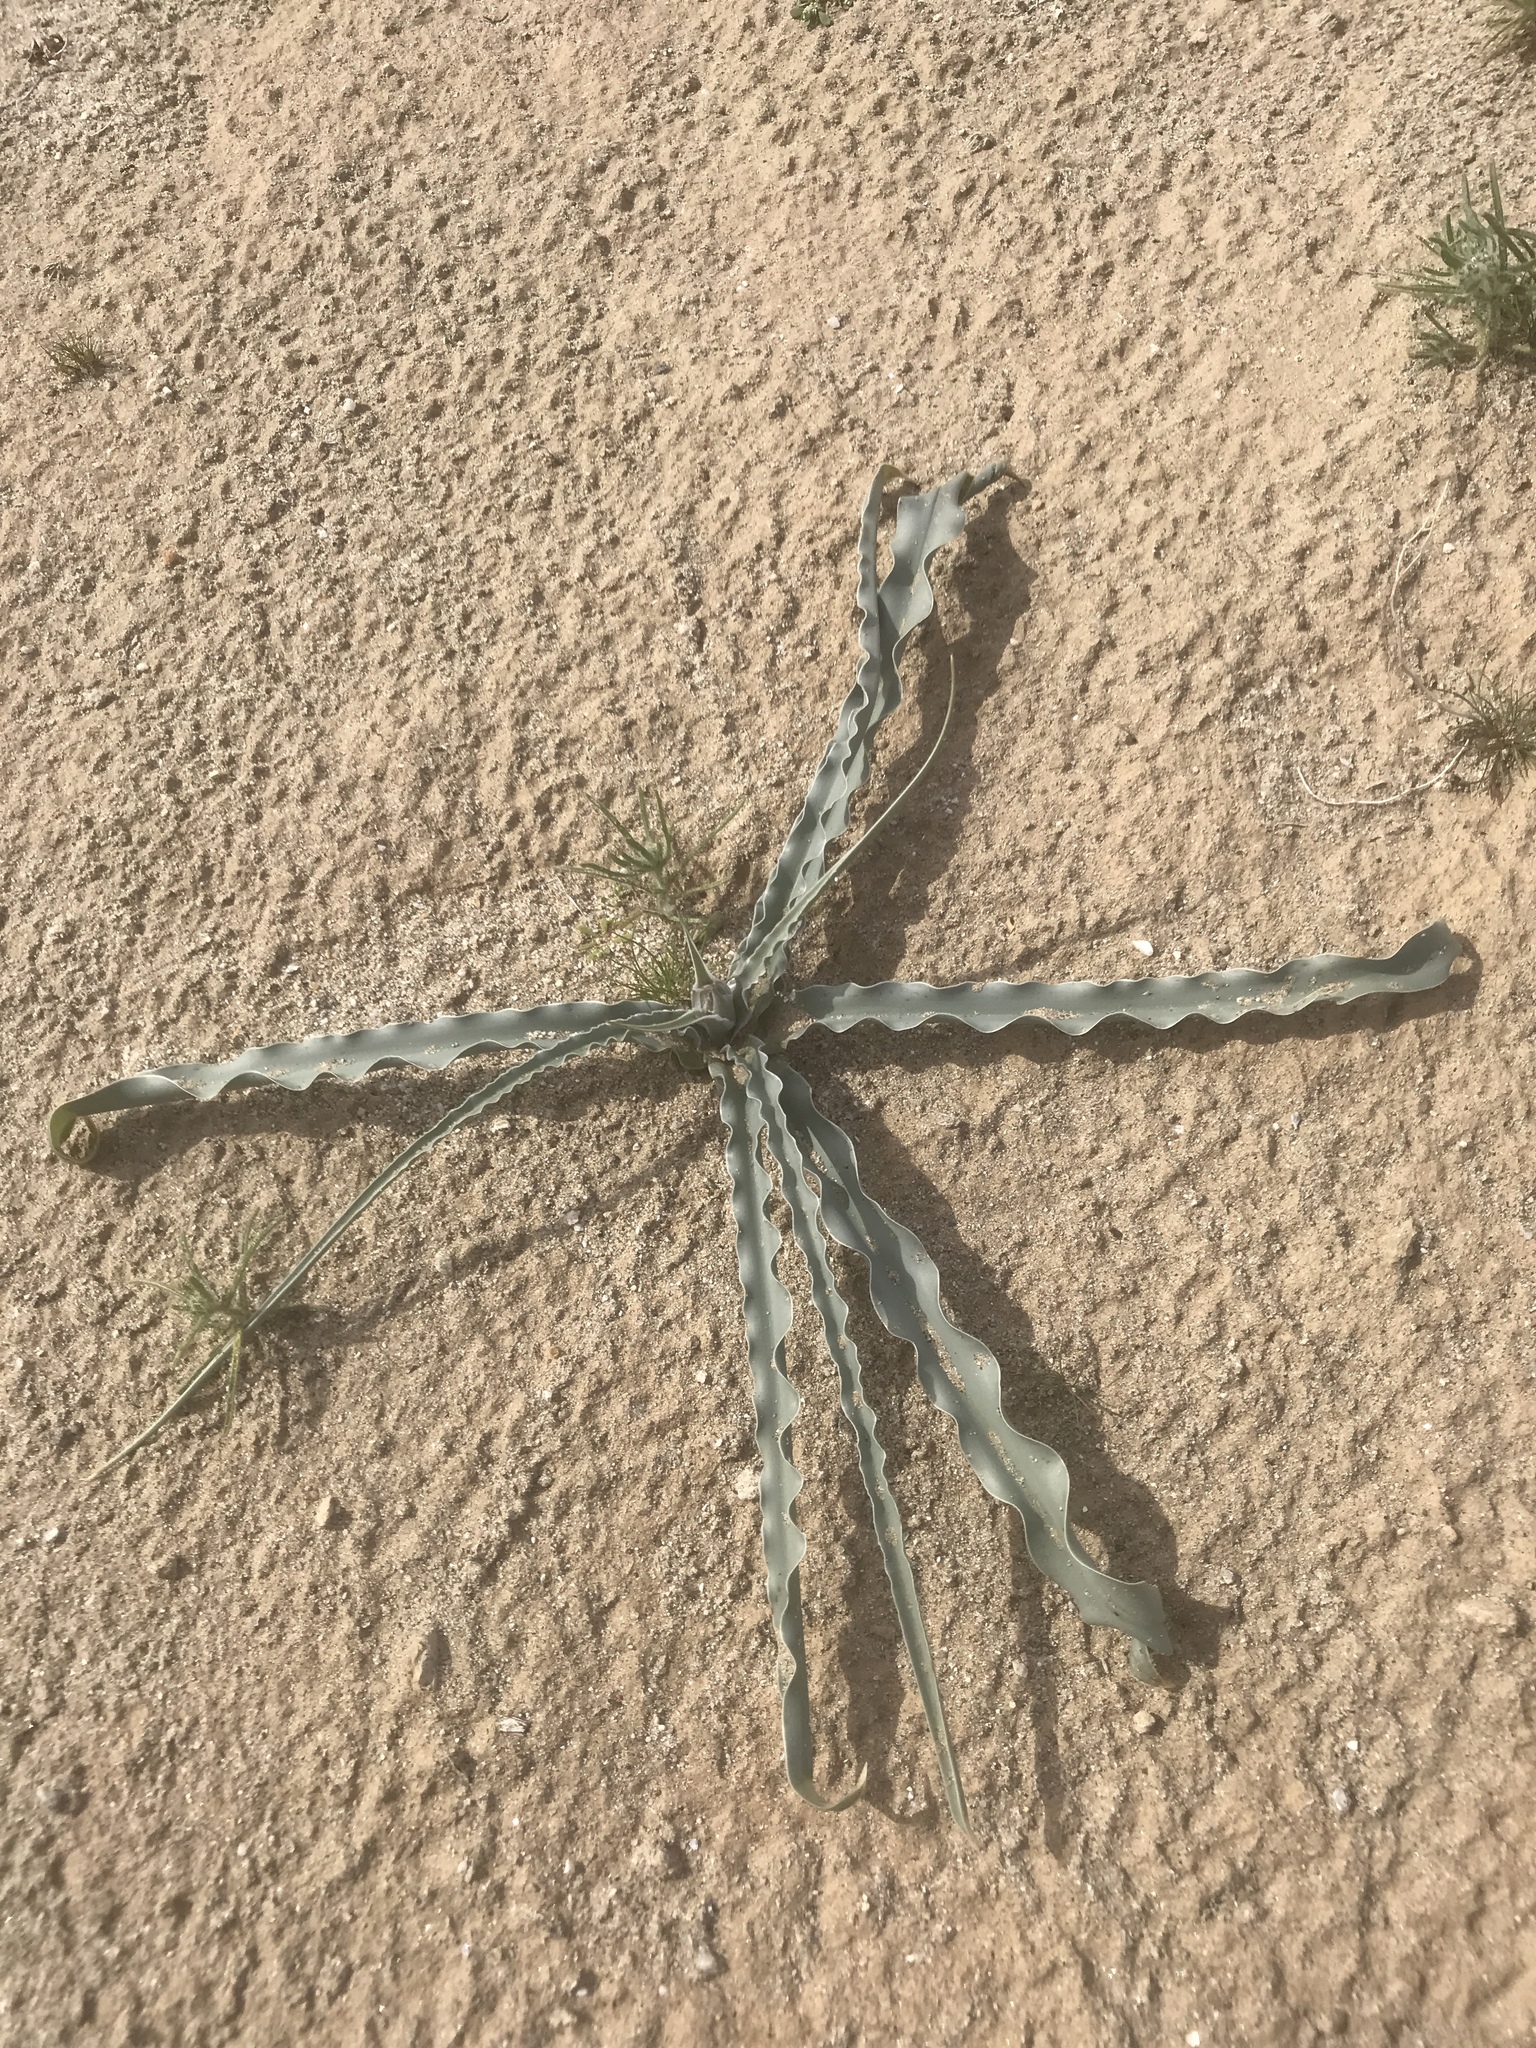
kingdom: Plantae
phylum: Tracheophyta
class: Liliopsida
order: Asparagales
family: Asparagaceae
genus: Hesperocallis
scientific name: Hesperocallis undulata
